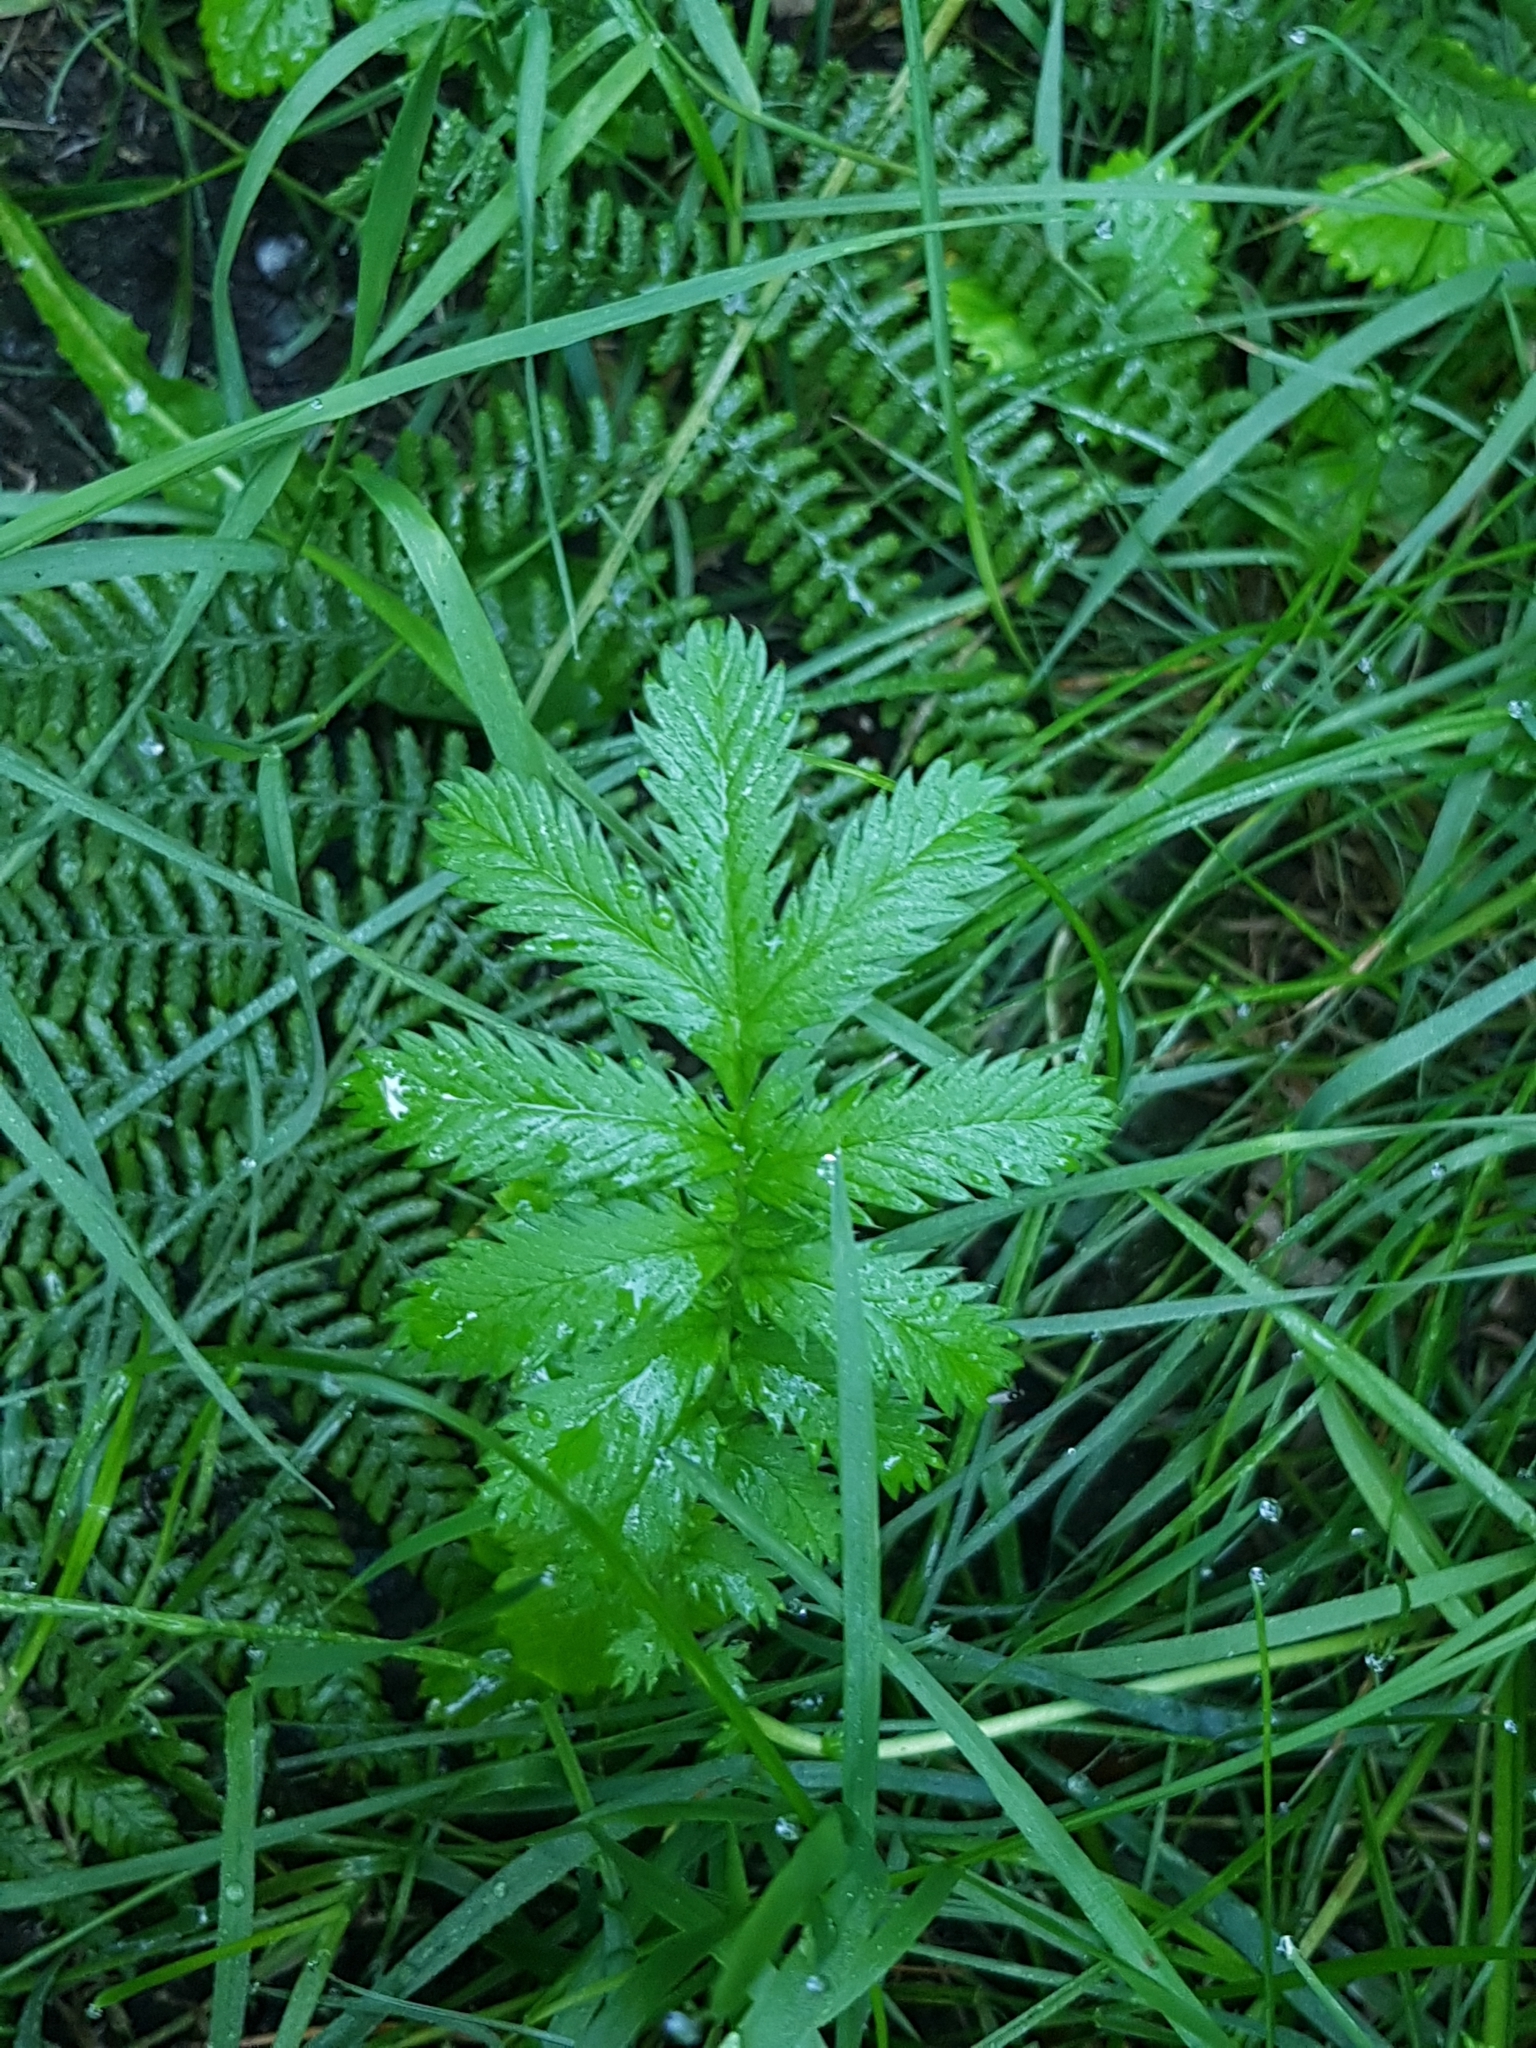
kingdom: Plantae
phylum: Tracheophyta
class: Magnoliopsida
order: Rosales
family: Rosaceae
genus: Argentina
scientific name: Argentina anserina
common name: Common silverweed
